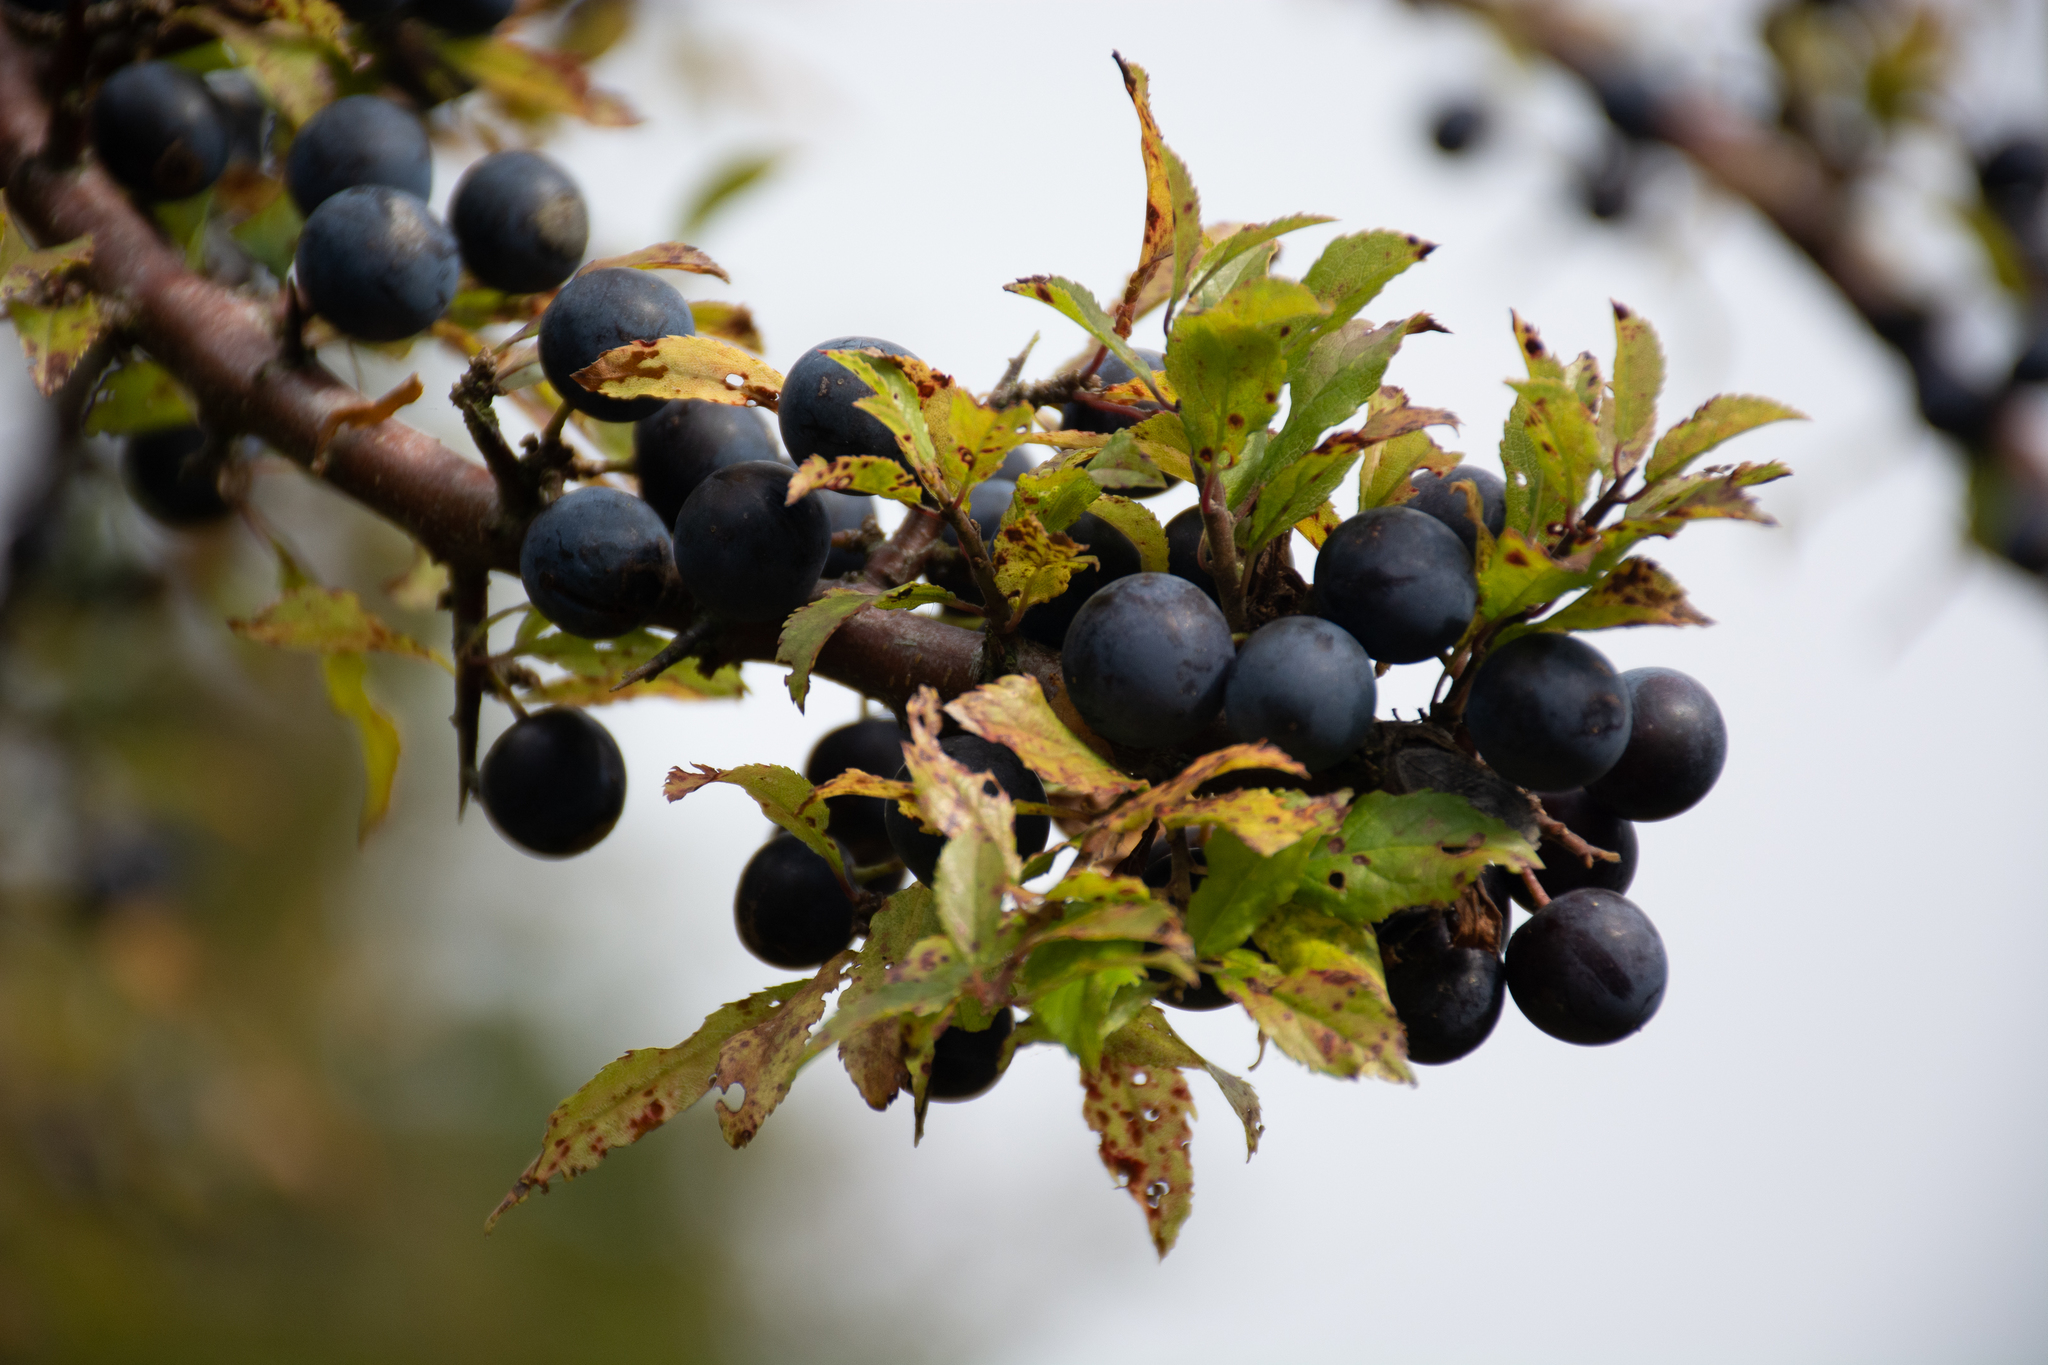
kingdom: Plantae
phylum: Tracheophyta
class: Magnoliopsida
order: Rosales
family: Rosaceae
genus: Prunus
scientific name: Prunus spinosa
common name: Blackthorn
